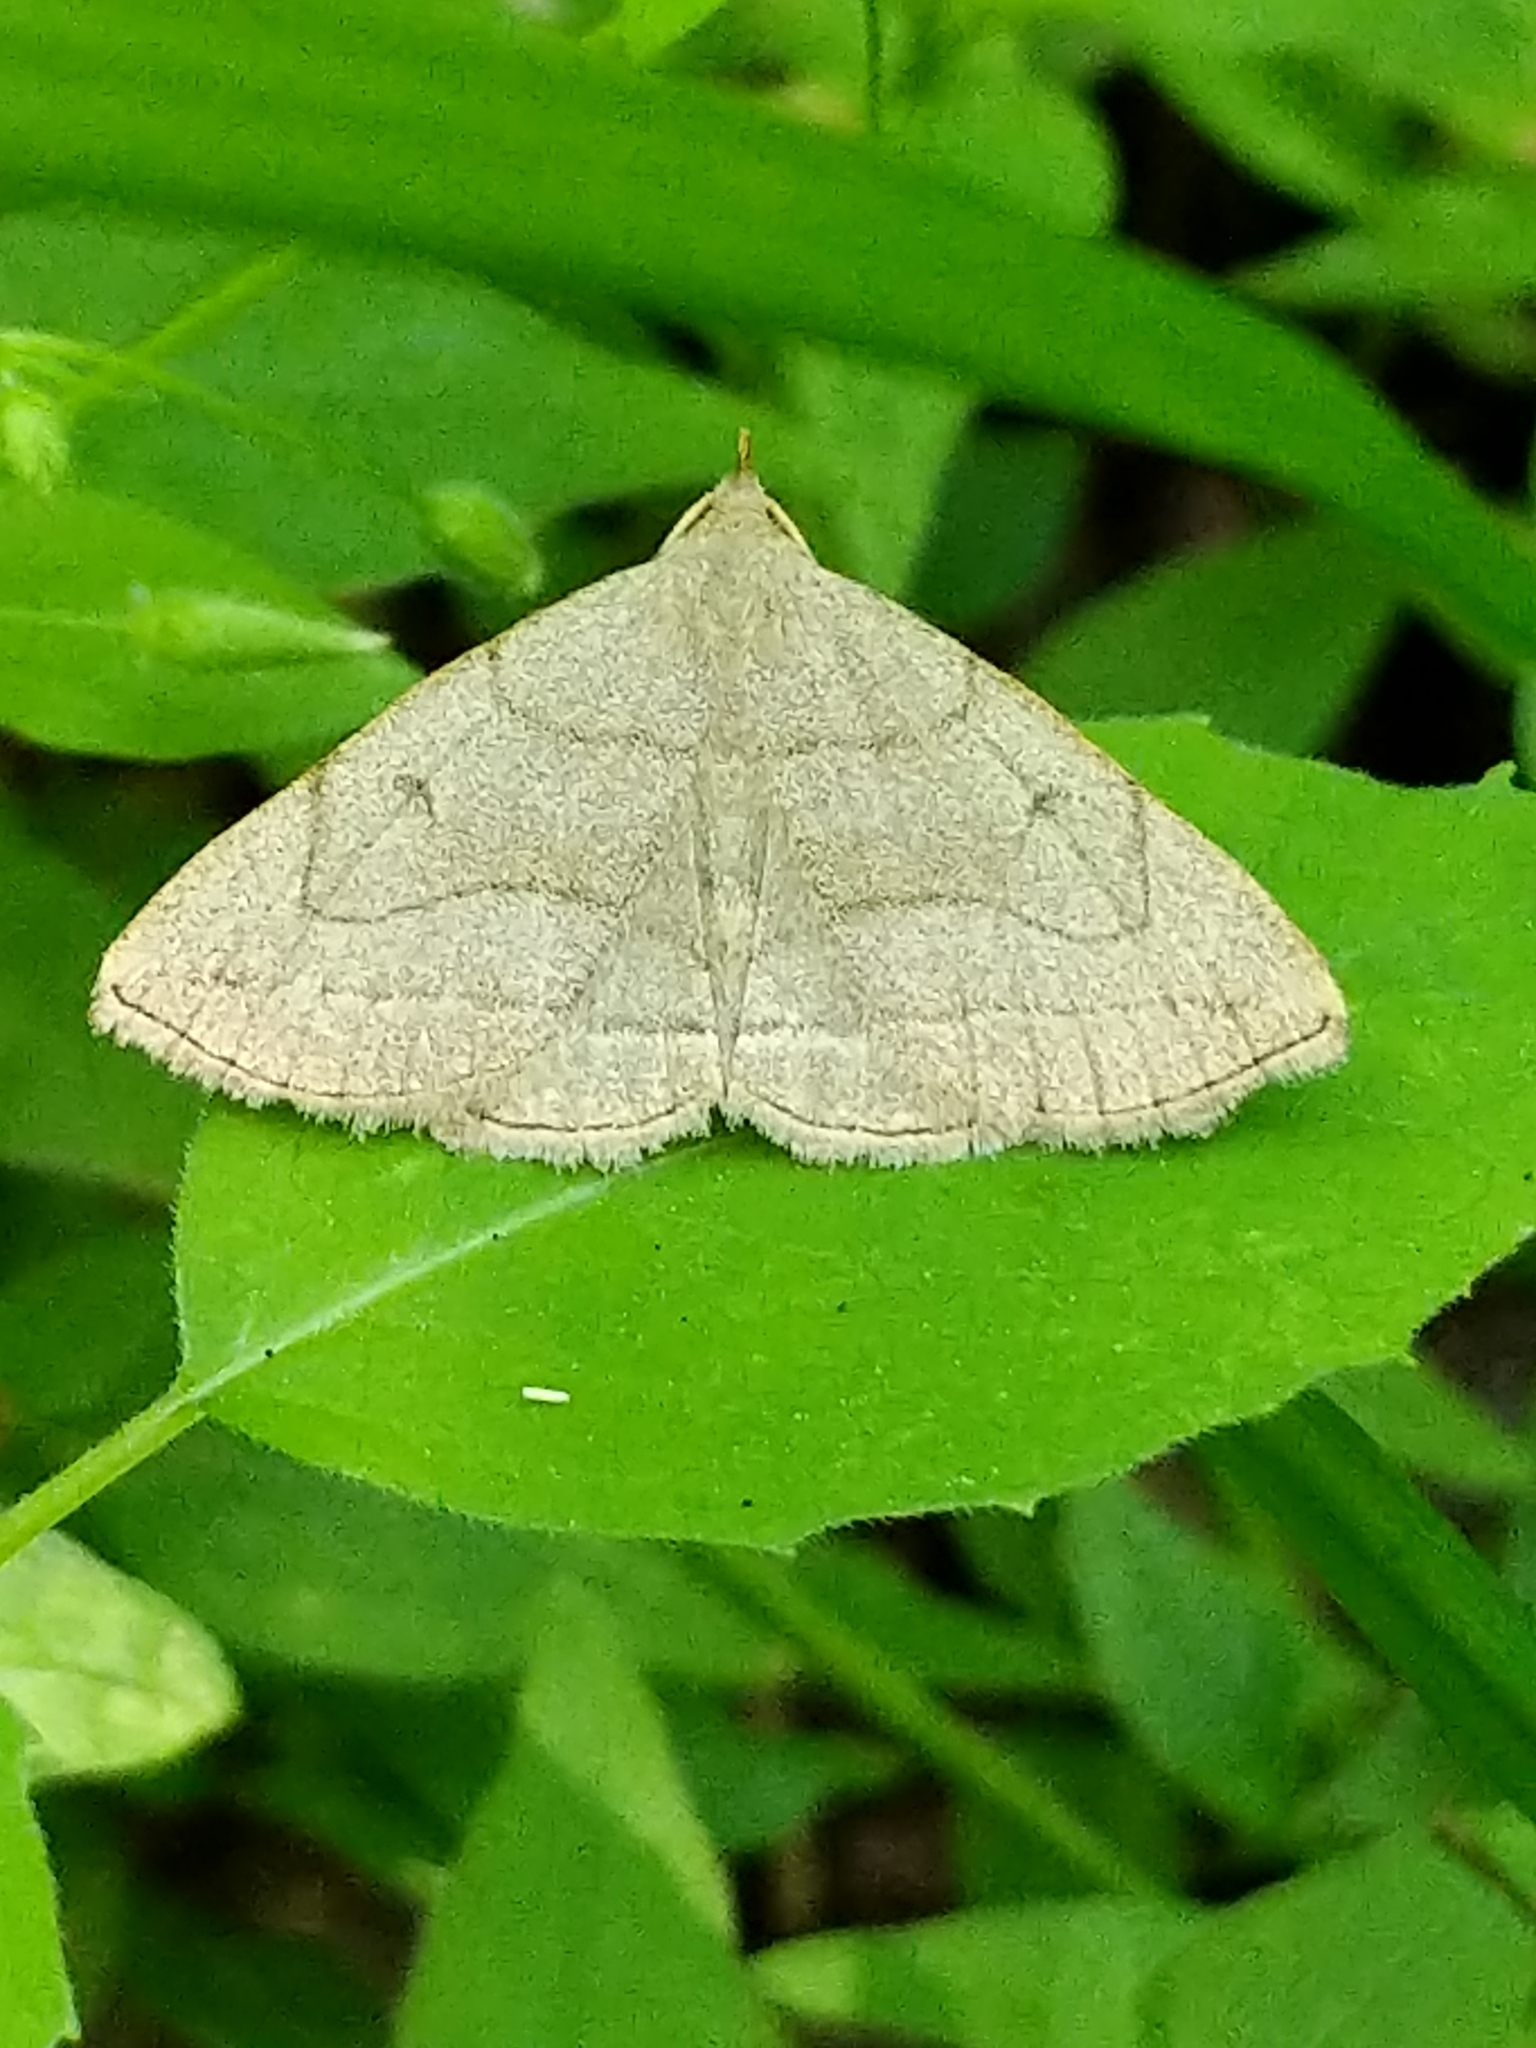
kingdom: Animalia
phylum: Arthropoda
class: Insecta
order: Lepidoptera
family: Erebidae
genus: Zanclognatha
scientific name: Zanclognatha pedipilalis
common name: Grayish fan-foot
